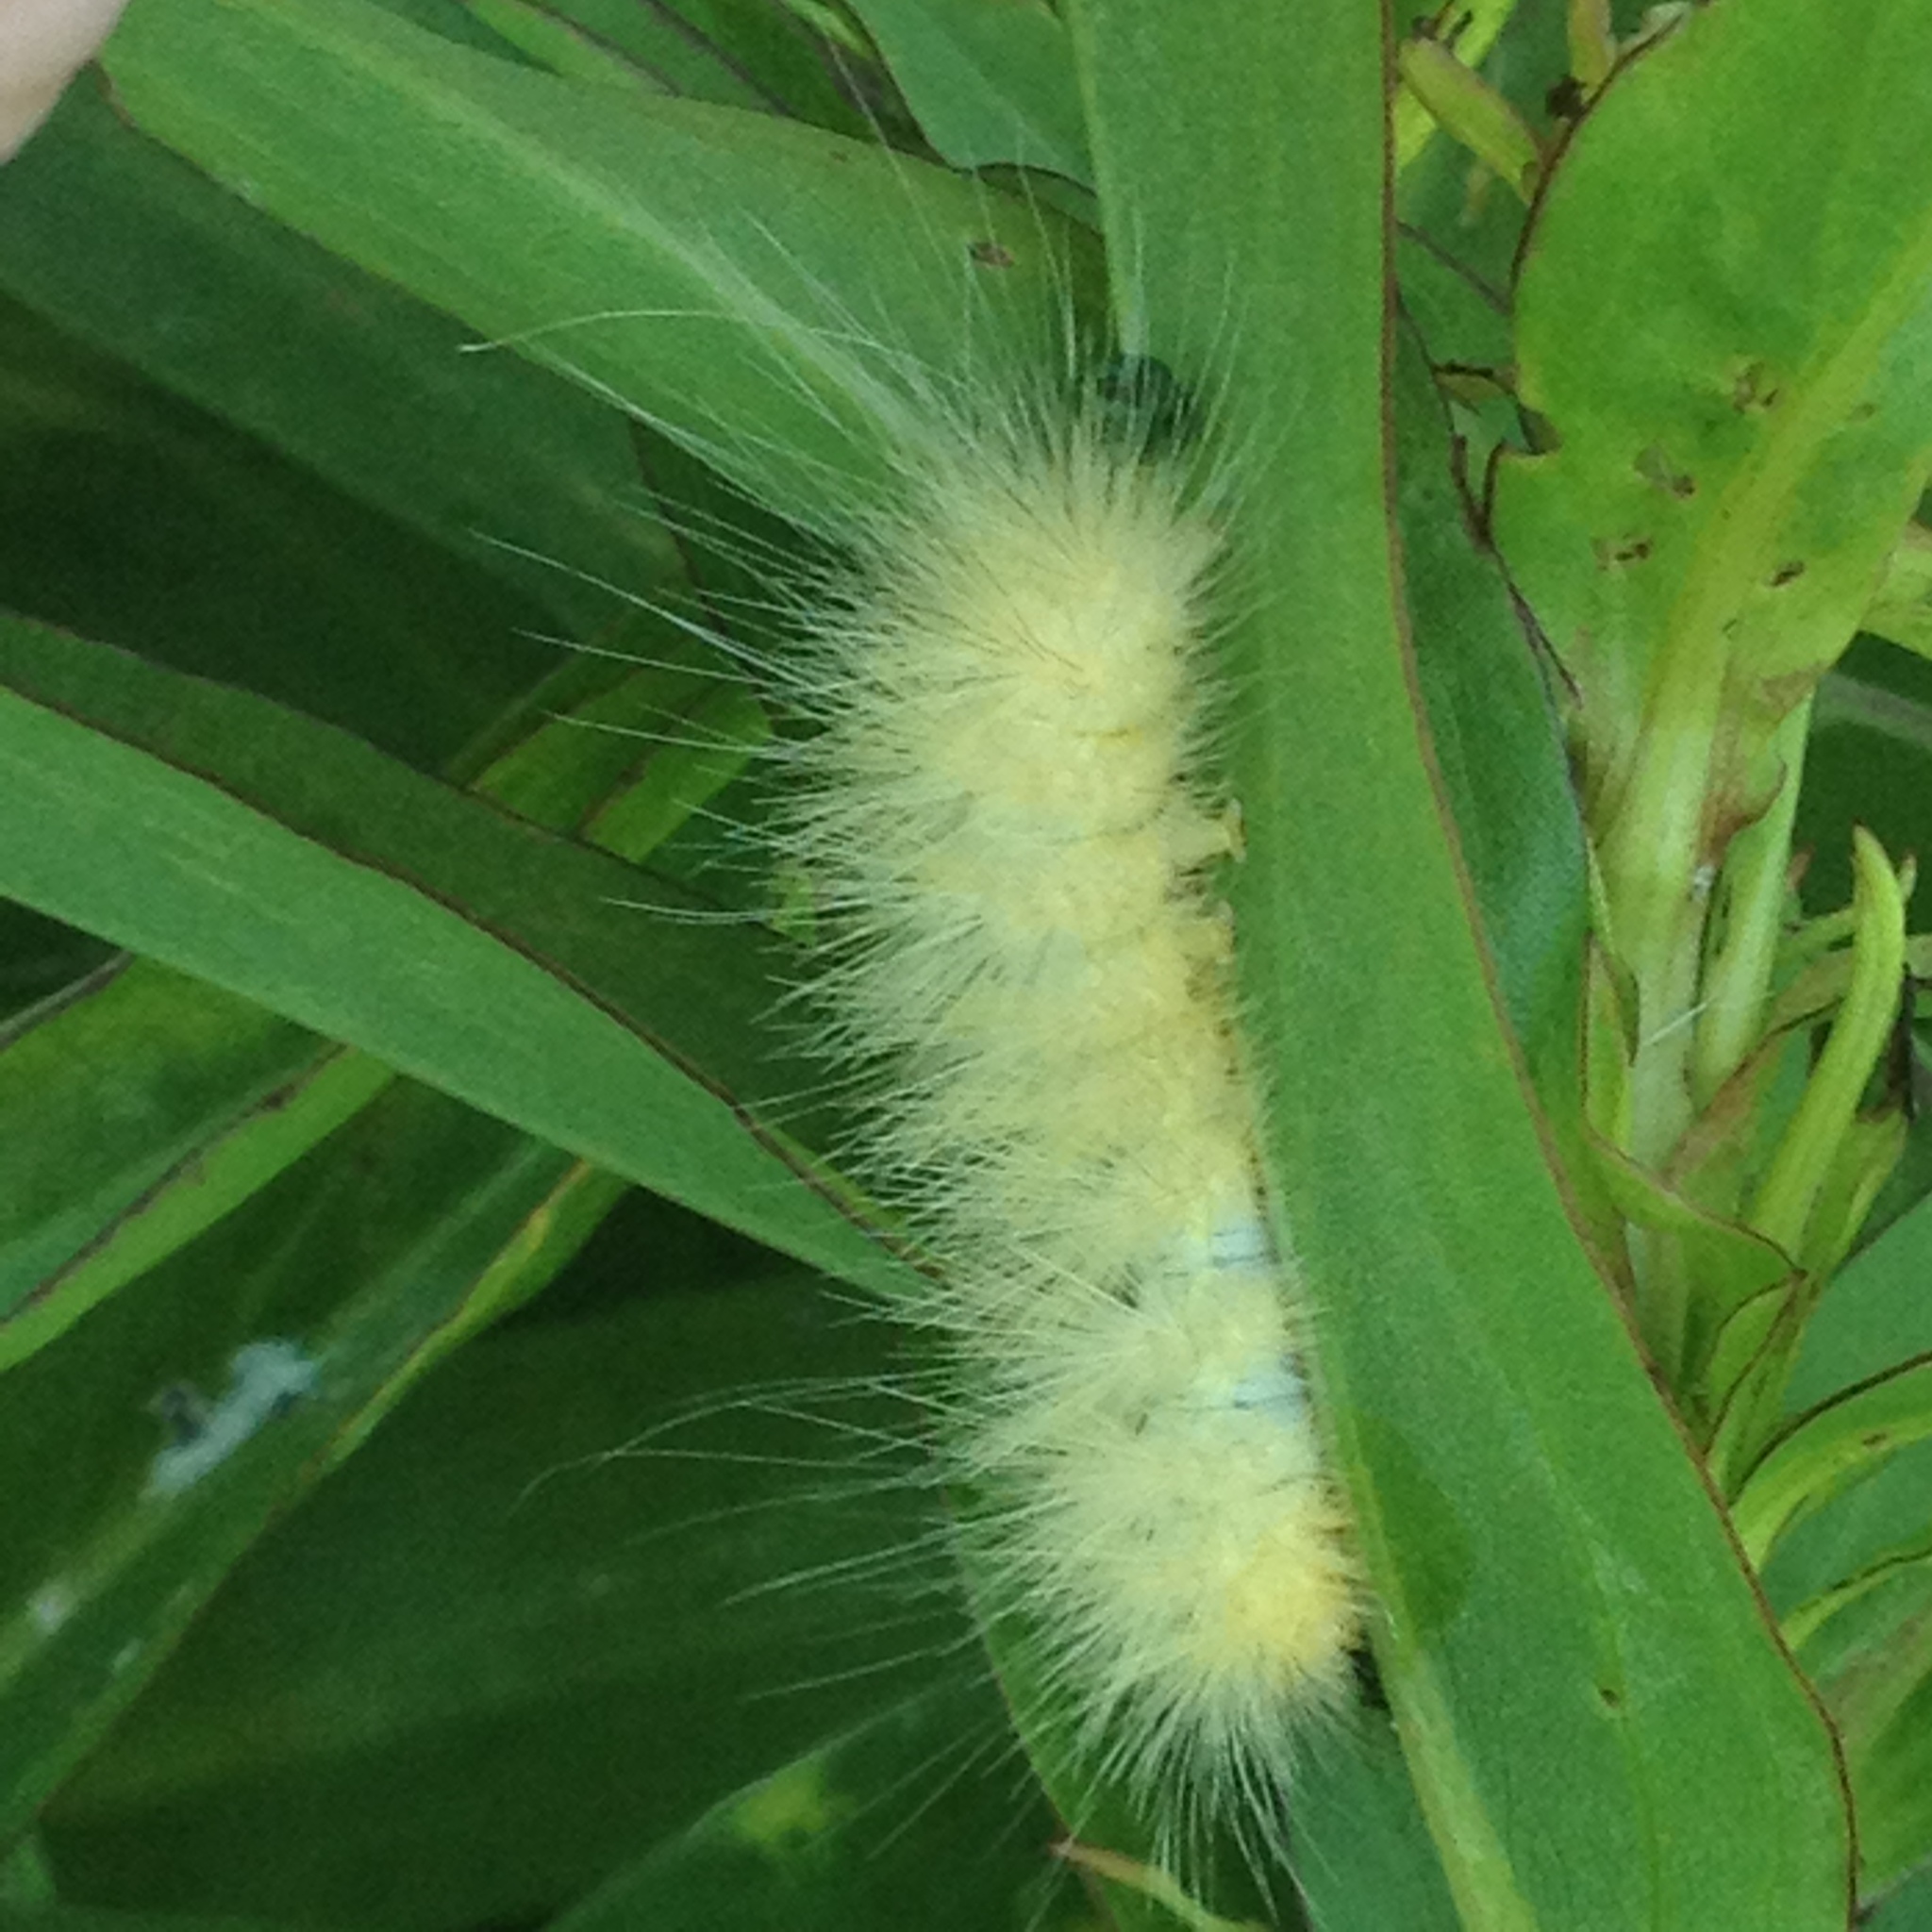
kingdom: Animalia
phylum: Arthropoda
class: Insecta
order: Lepidoptera
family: Erebidae
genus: Spilosoma
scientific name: Spilosoma virginica
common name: Virginia tiger moth
